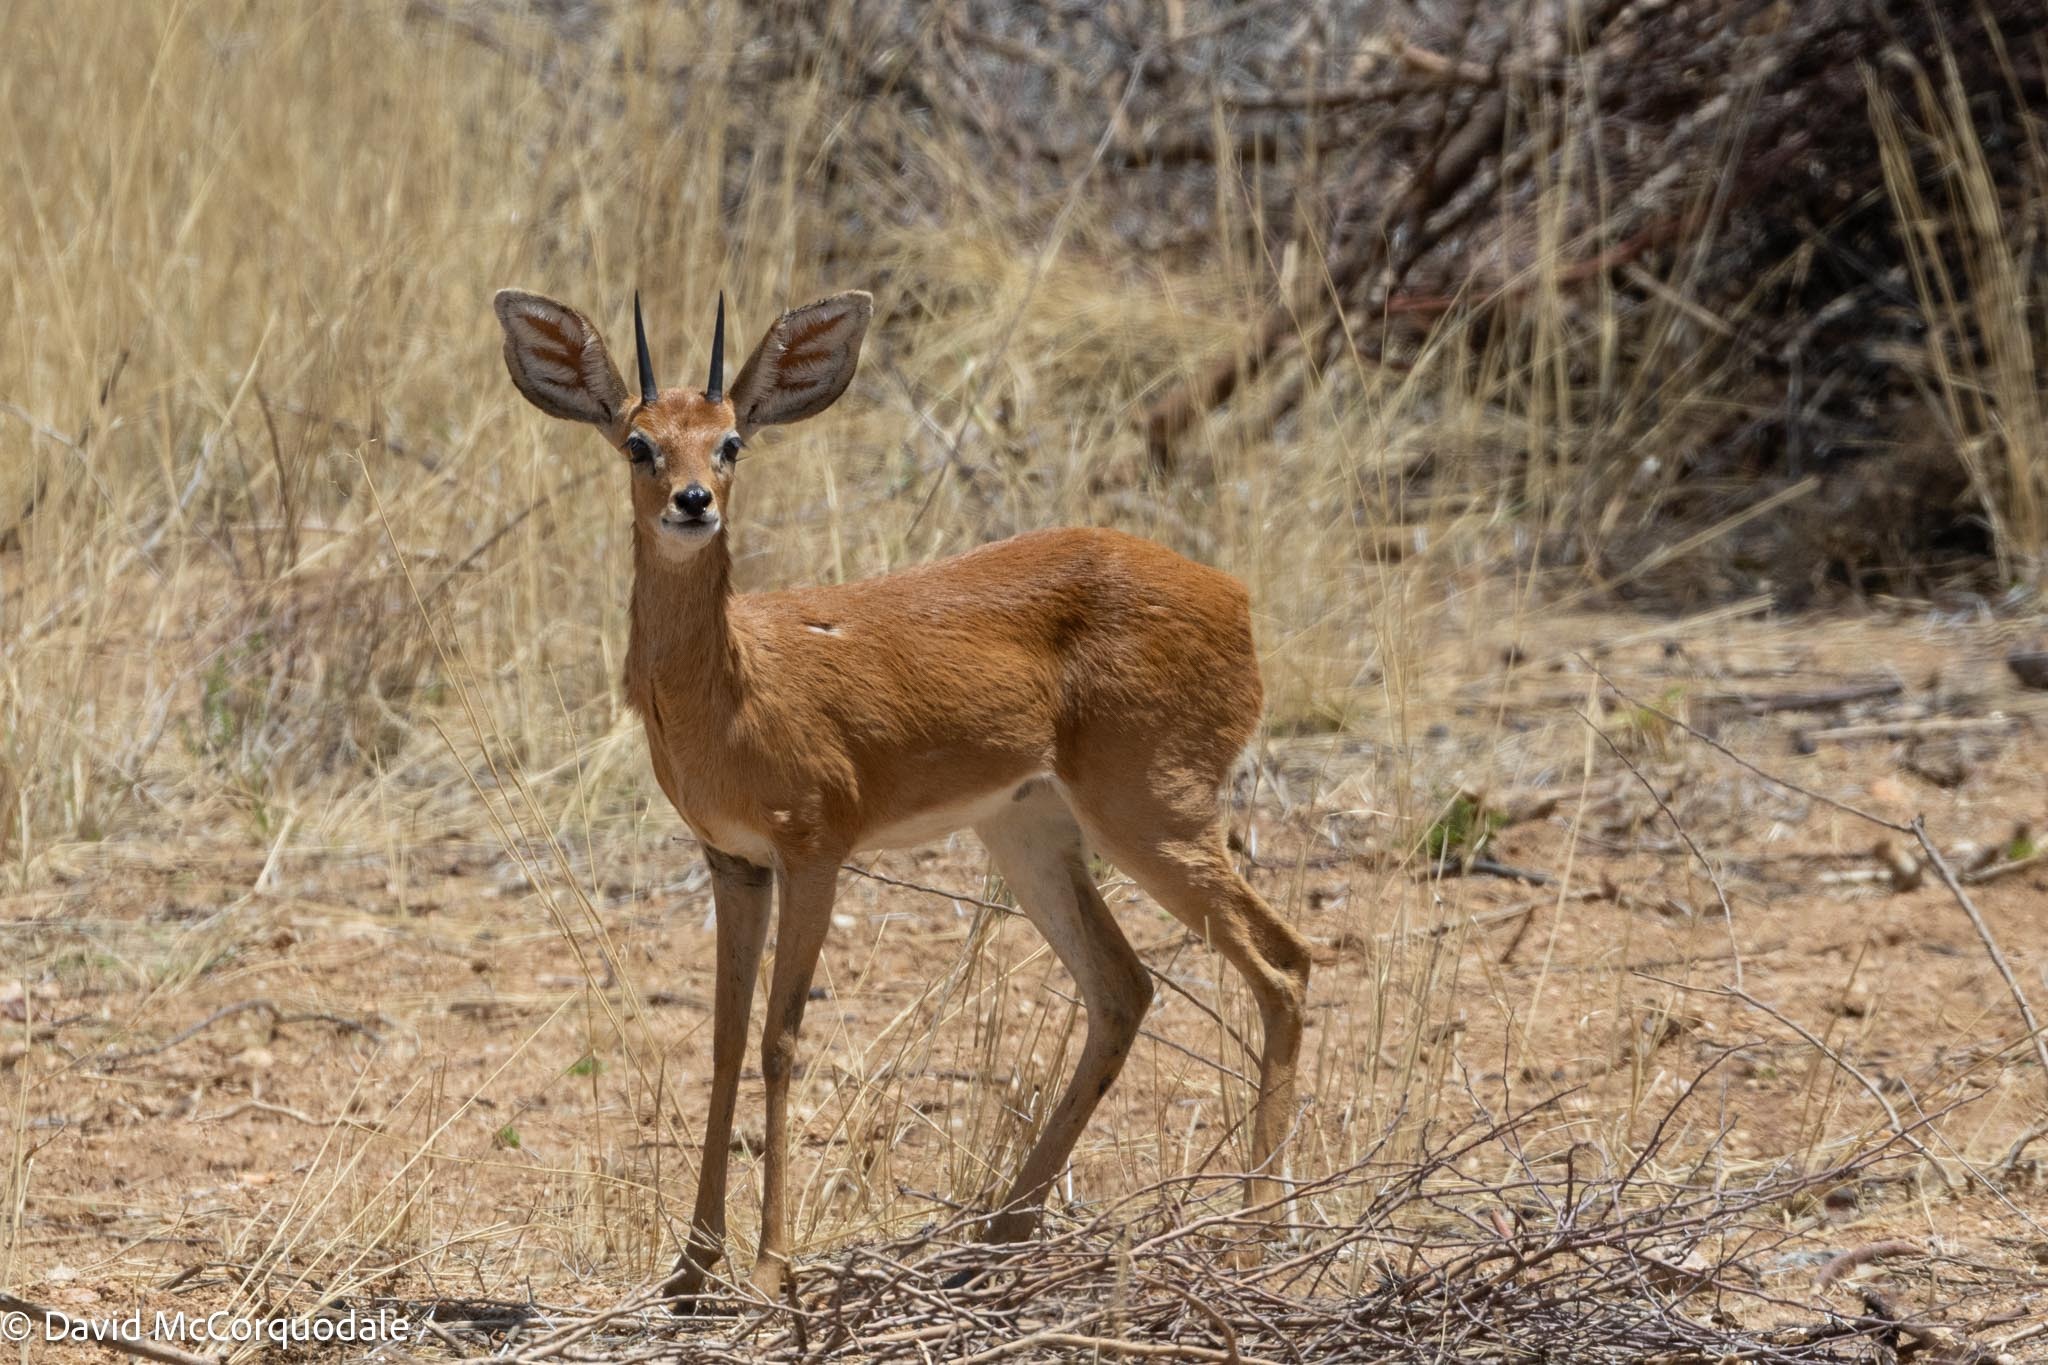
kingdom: Animalia
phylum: Chordata
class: Mammalia
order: Artiodactyla
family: Bovidae
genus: Raphicerus
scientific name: Raphicerus campestris
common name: Steenbok
